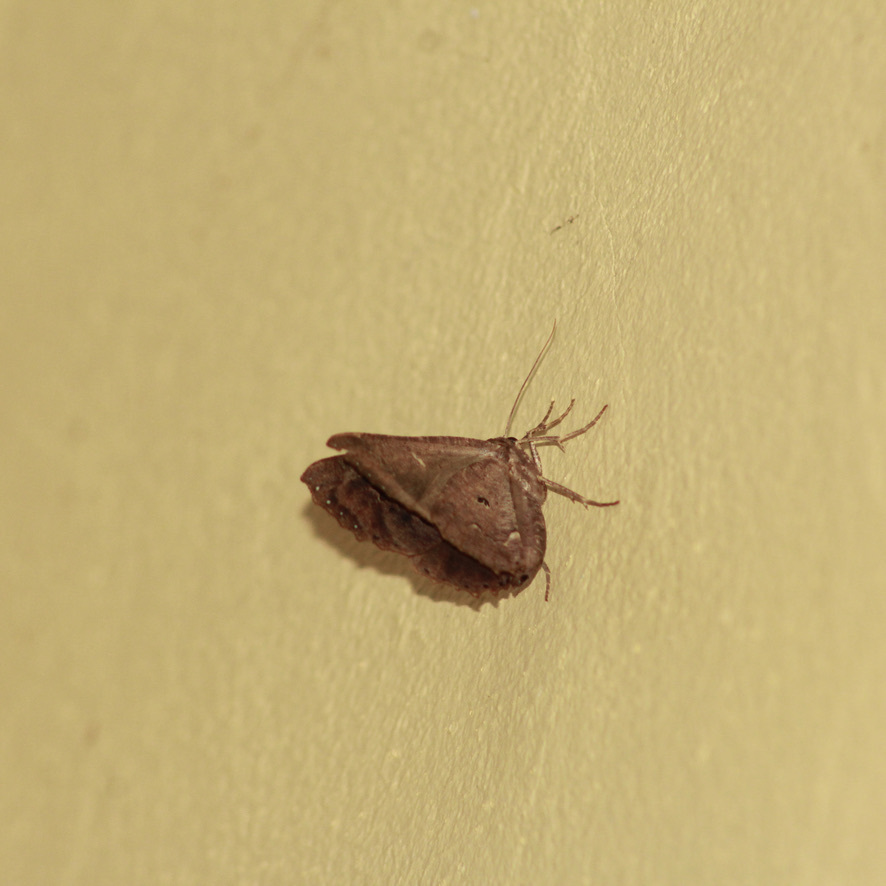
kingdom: Animalia
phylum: Arthropoda
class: Insecta
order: Lepidoptera
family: Geometridae
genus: Pero
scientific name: Pero dularia
